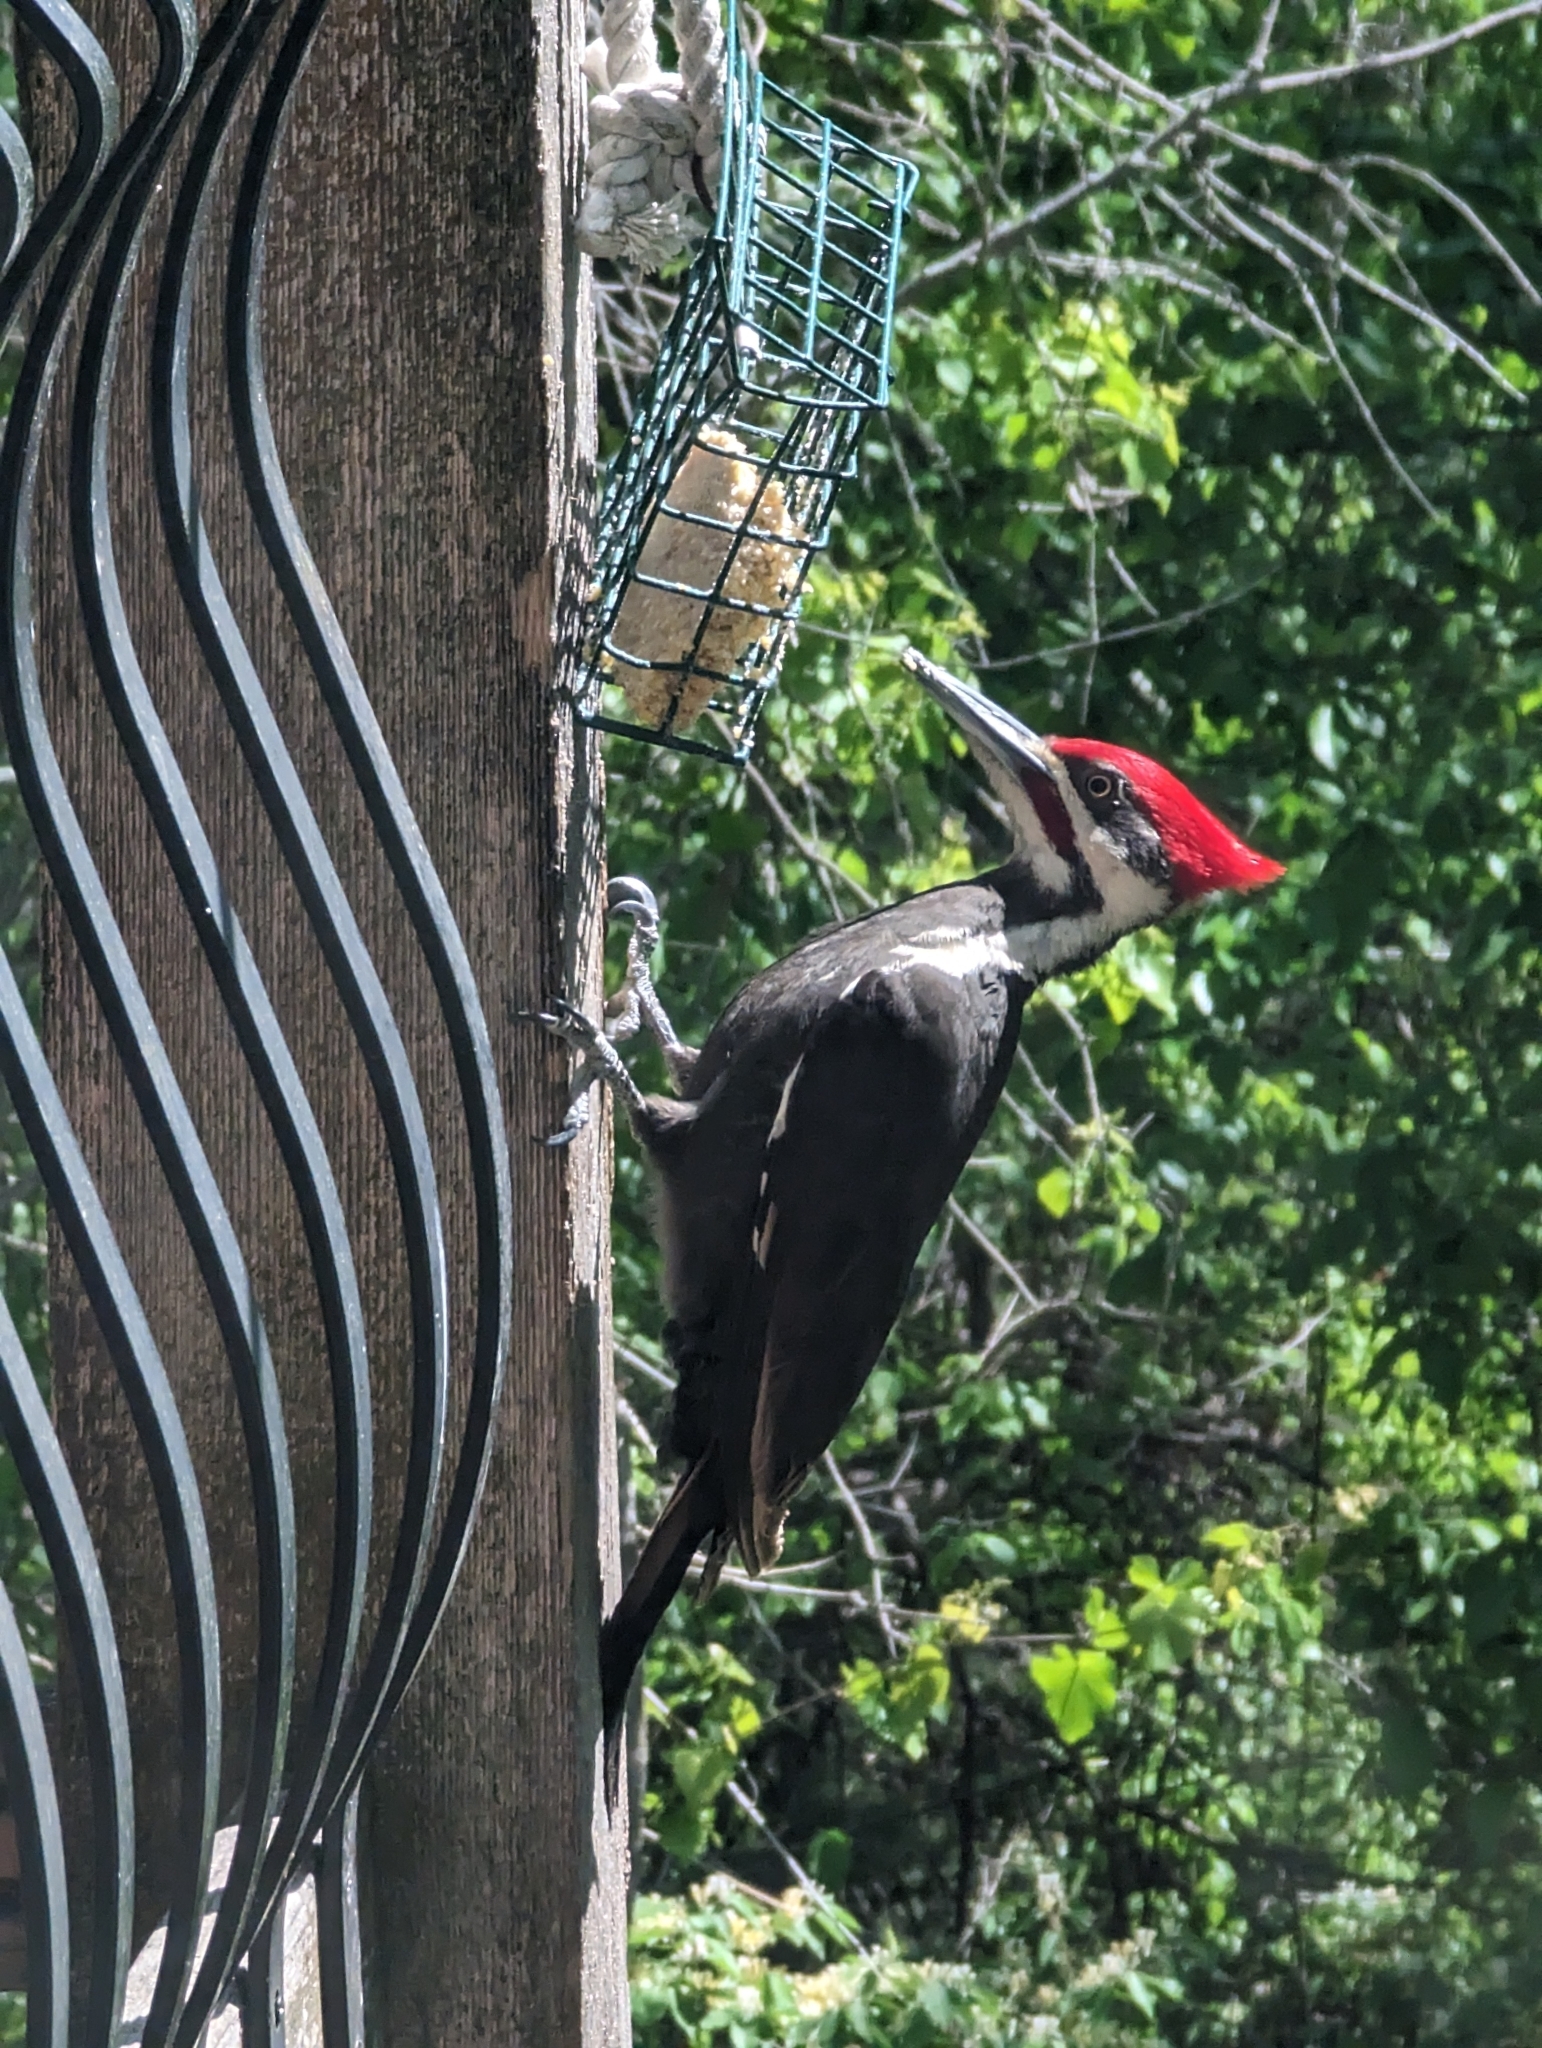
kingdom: Animalia
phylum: Chordata
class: Aves
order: Piciformes
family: Picidae
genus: Dryocopus
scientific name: Dryocopus pileatus
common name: Pileated woodpecker
